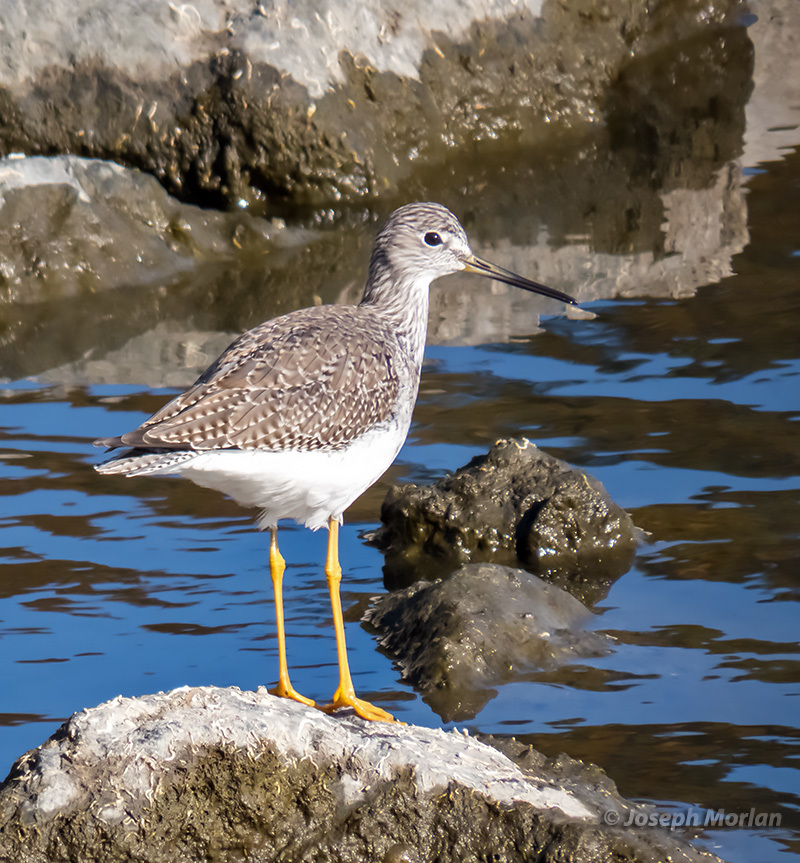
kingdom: Animalia
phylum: Chordata
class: Aves
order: Charadriiformes
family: Scolopacidae
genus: Tringa
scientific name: Tringa melanoleuca
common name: Greater yellowlegs
